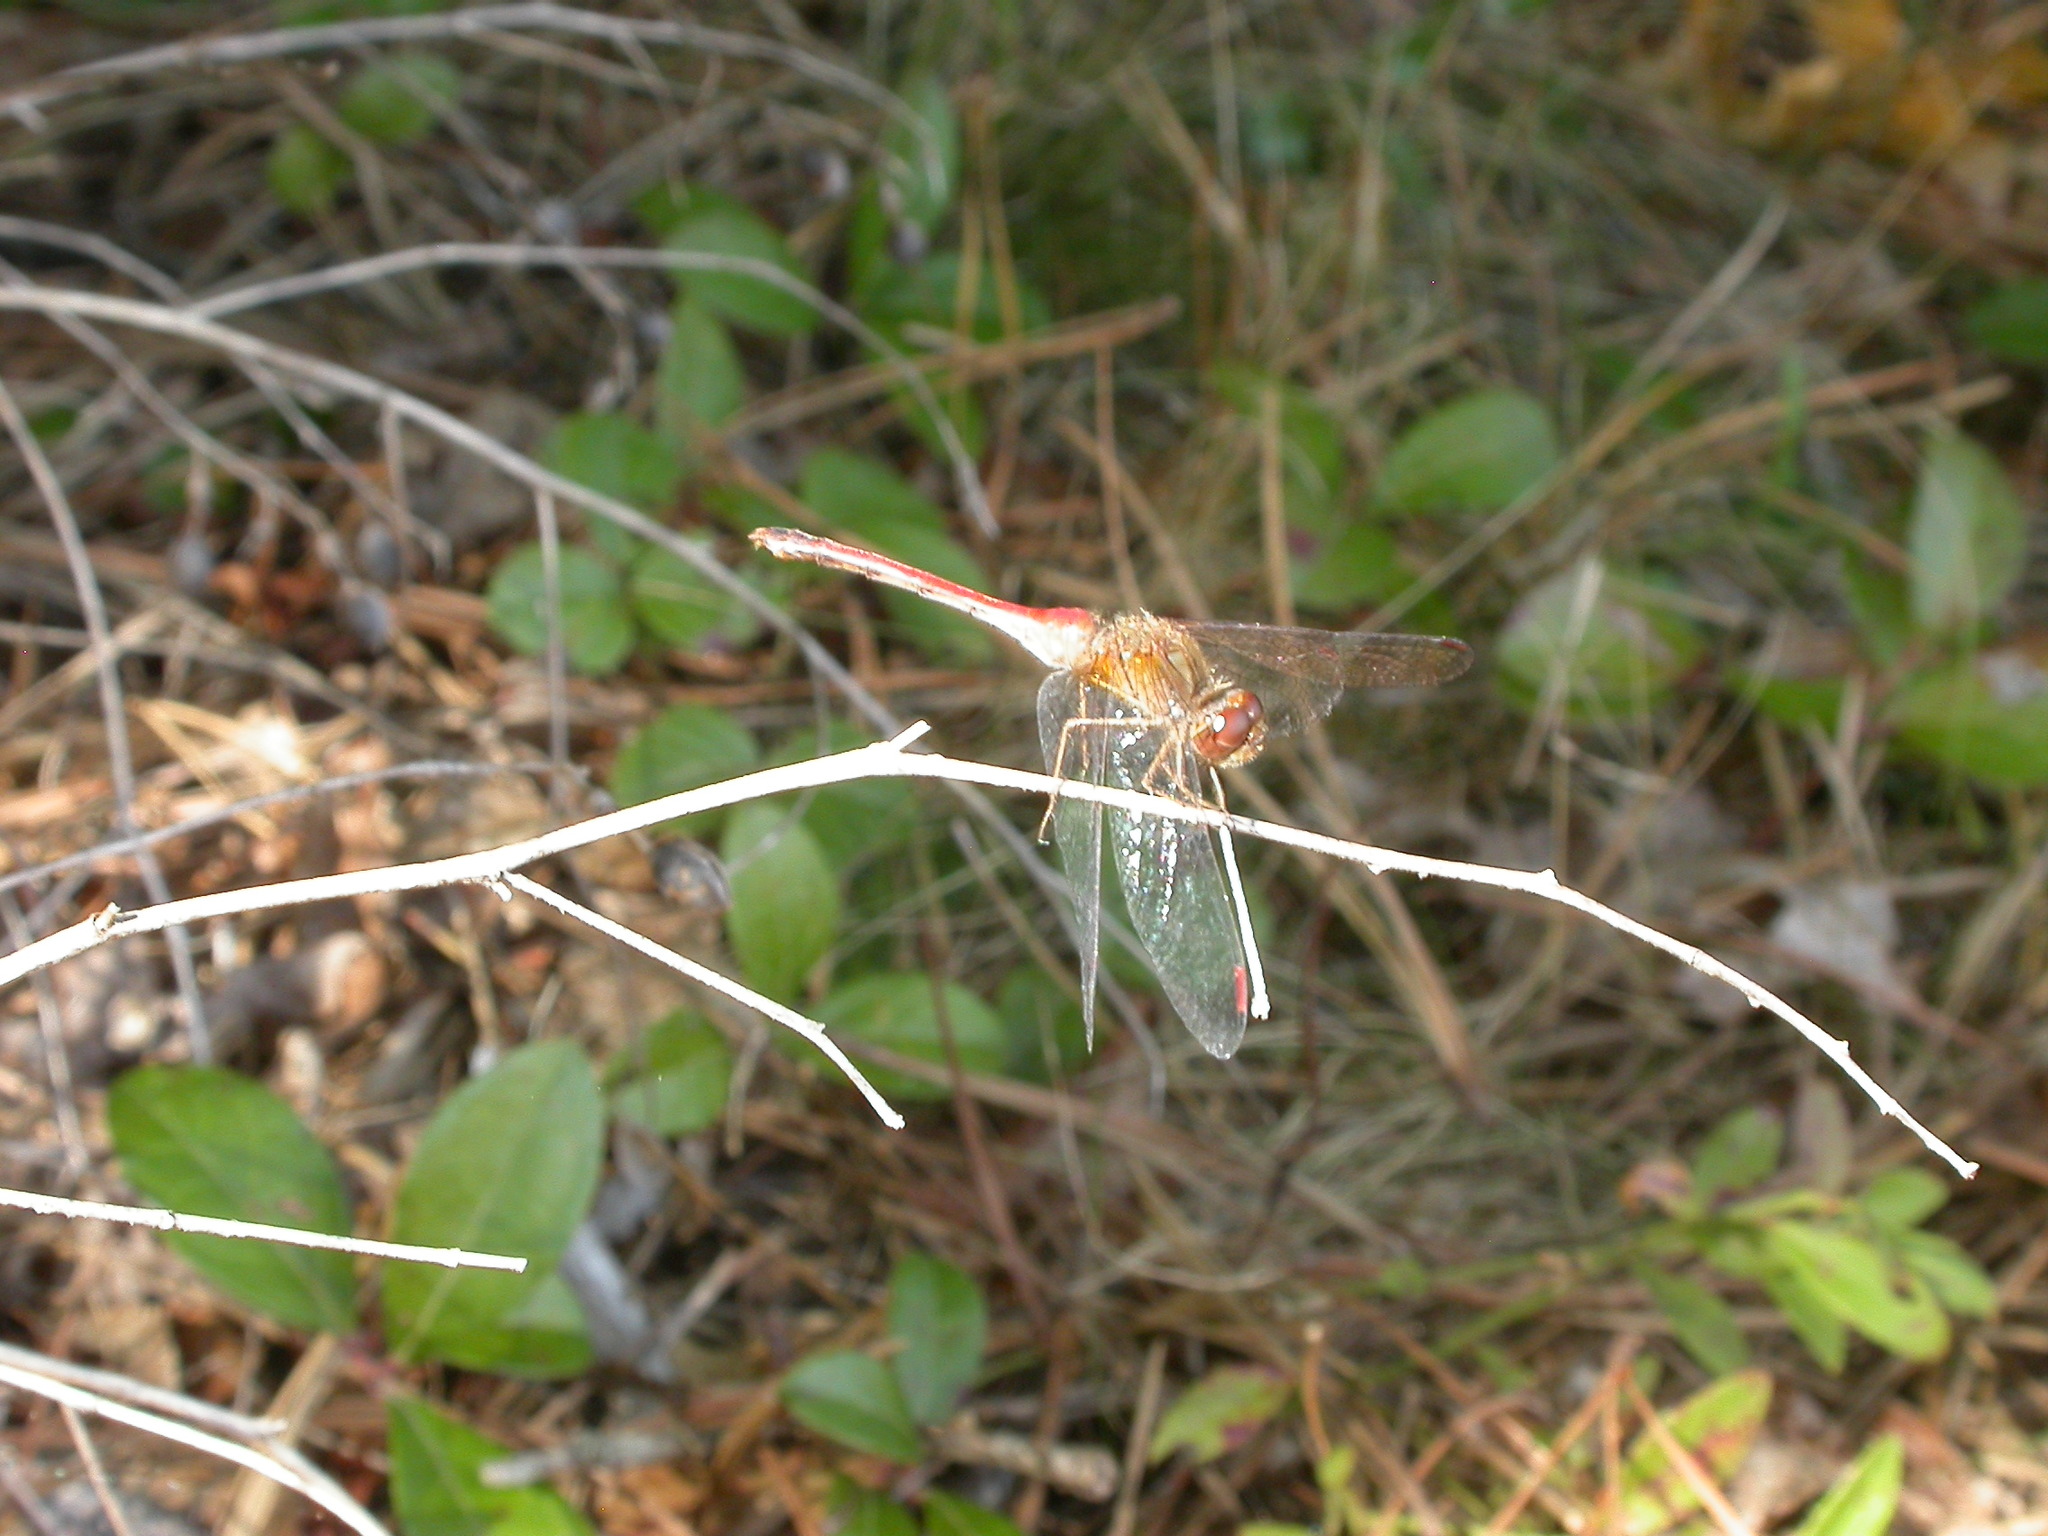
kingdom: Animalia
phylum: Arthropoda
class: Insecta
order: Odonata
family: Libellulidae
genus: Sympetrum
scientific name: Sympetrum vicinum
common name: Autumn meadowhawk
